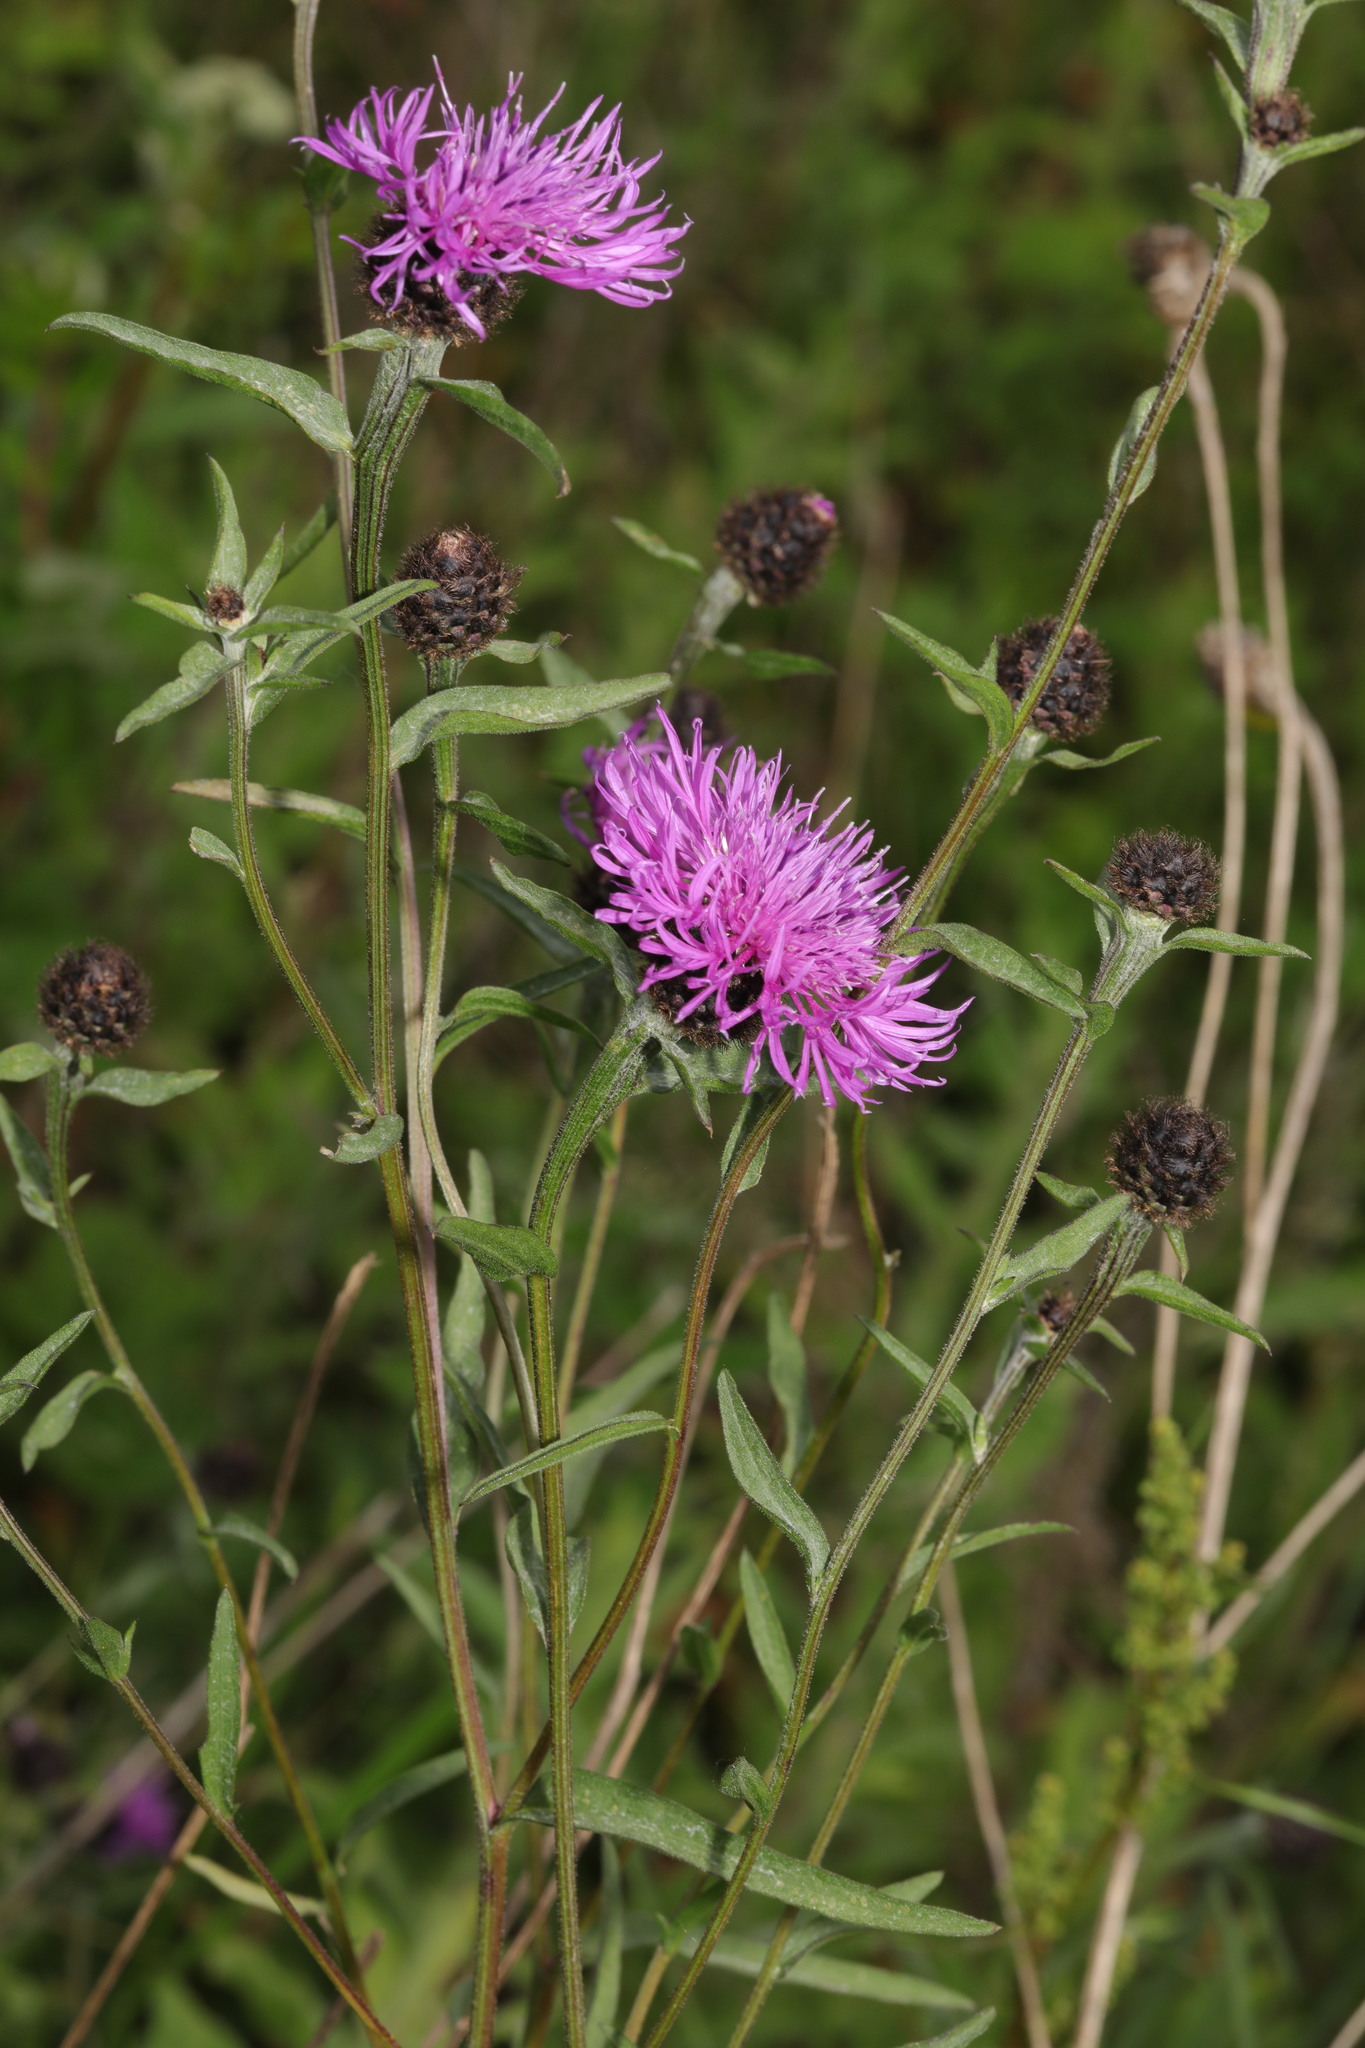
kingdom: Plantae
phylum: Tracheophyta
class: Magnoliopsida
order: Asterales
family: Asteraceae
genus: Centaurea
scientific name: Centaurea nigra
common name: Lesser knapweed
